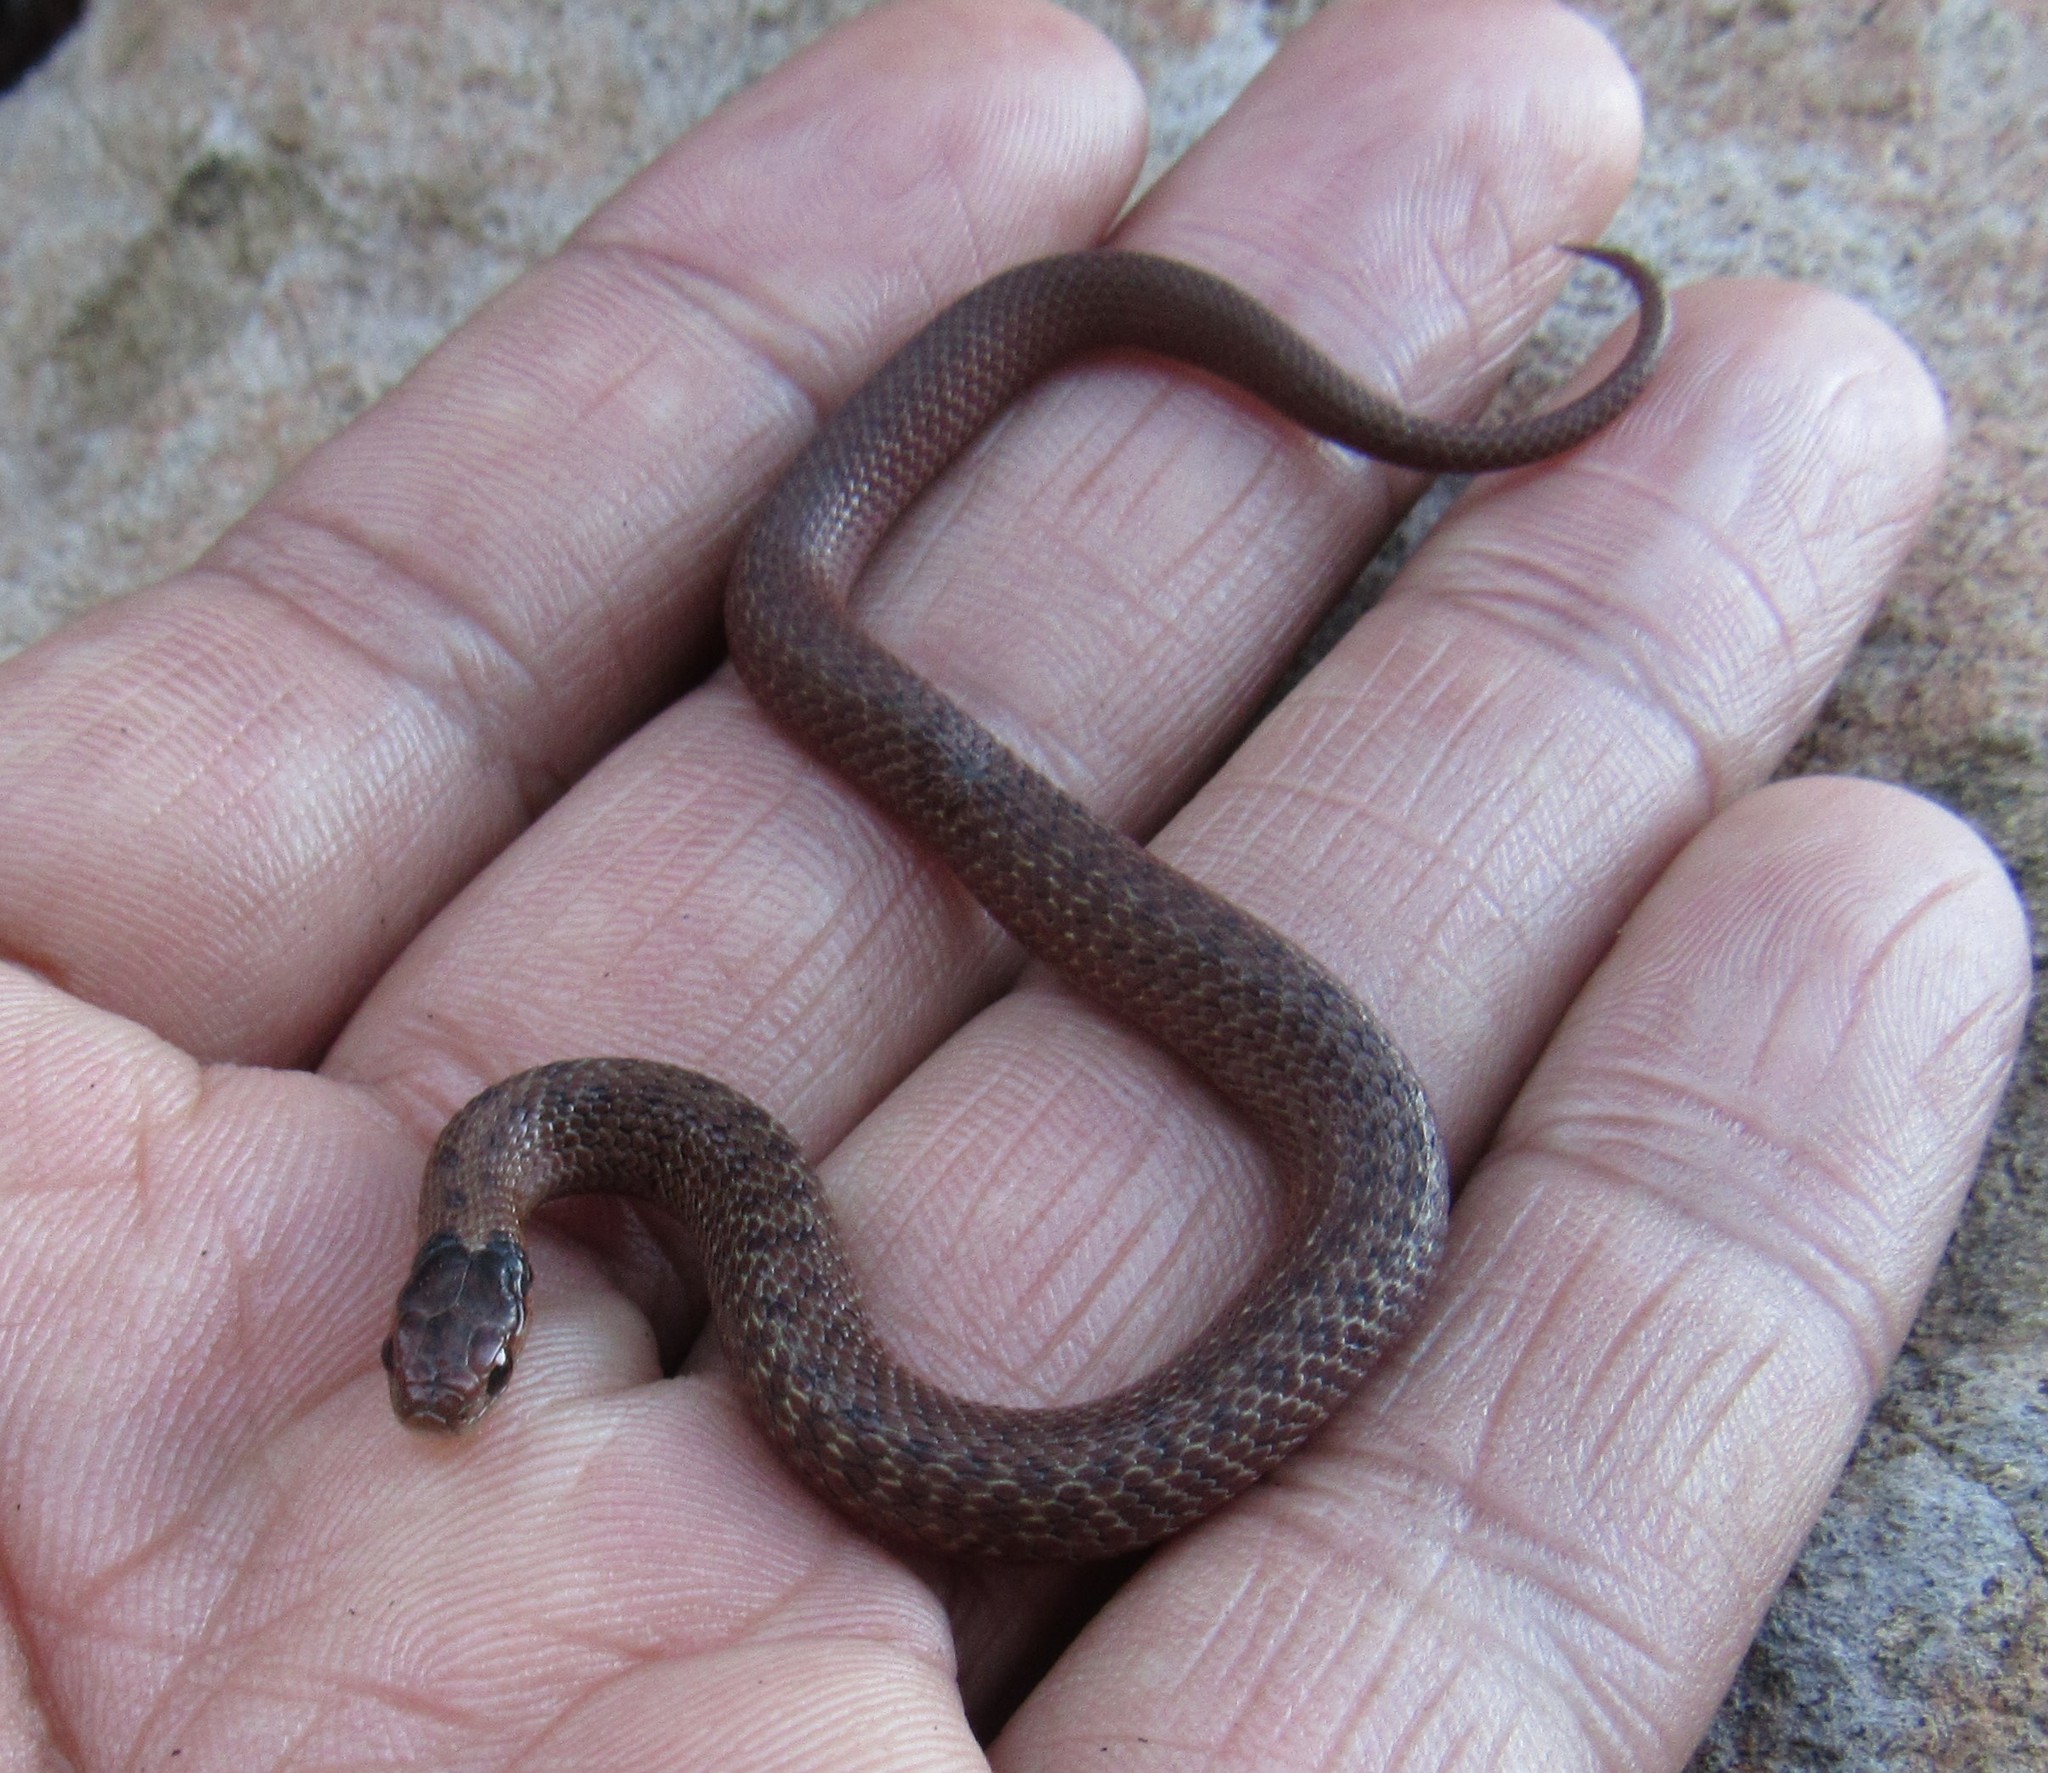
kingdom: Animalia
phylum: Chordata
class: Squamata
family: Colubridae
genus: Storeria
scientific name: Storeria storerioides
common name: Mexican brown snake
